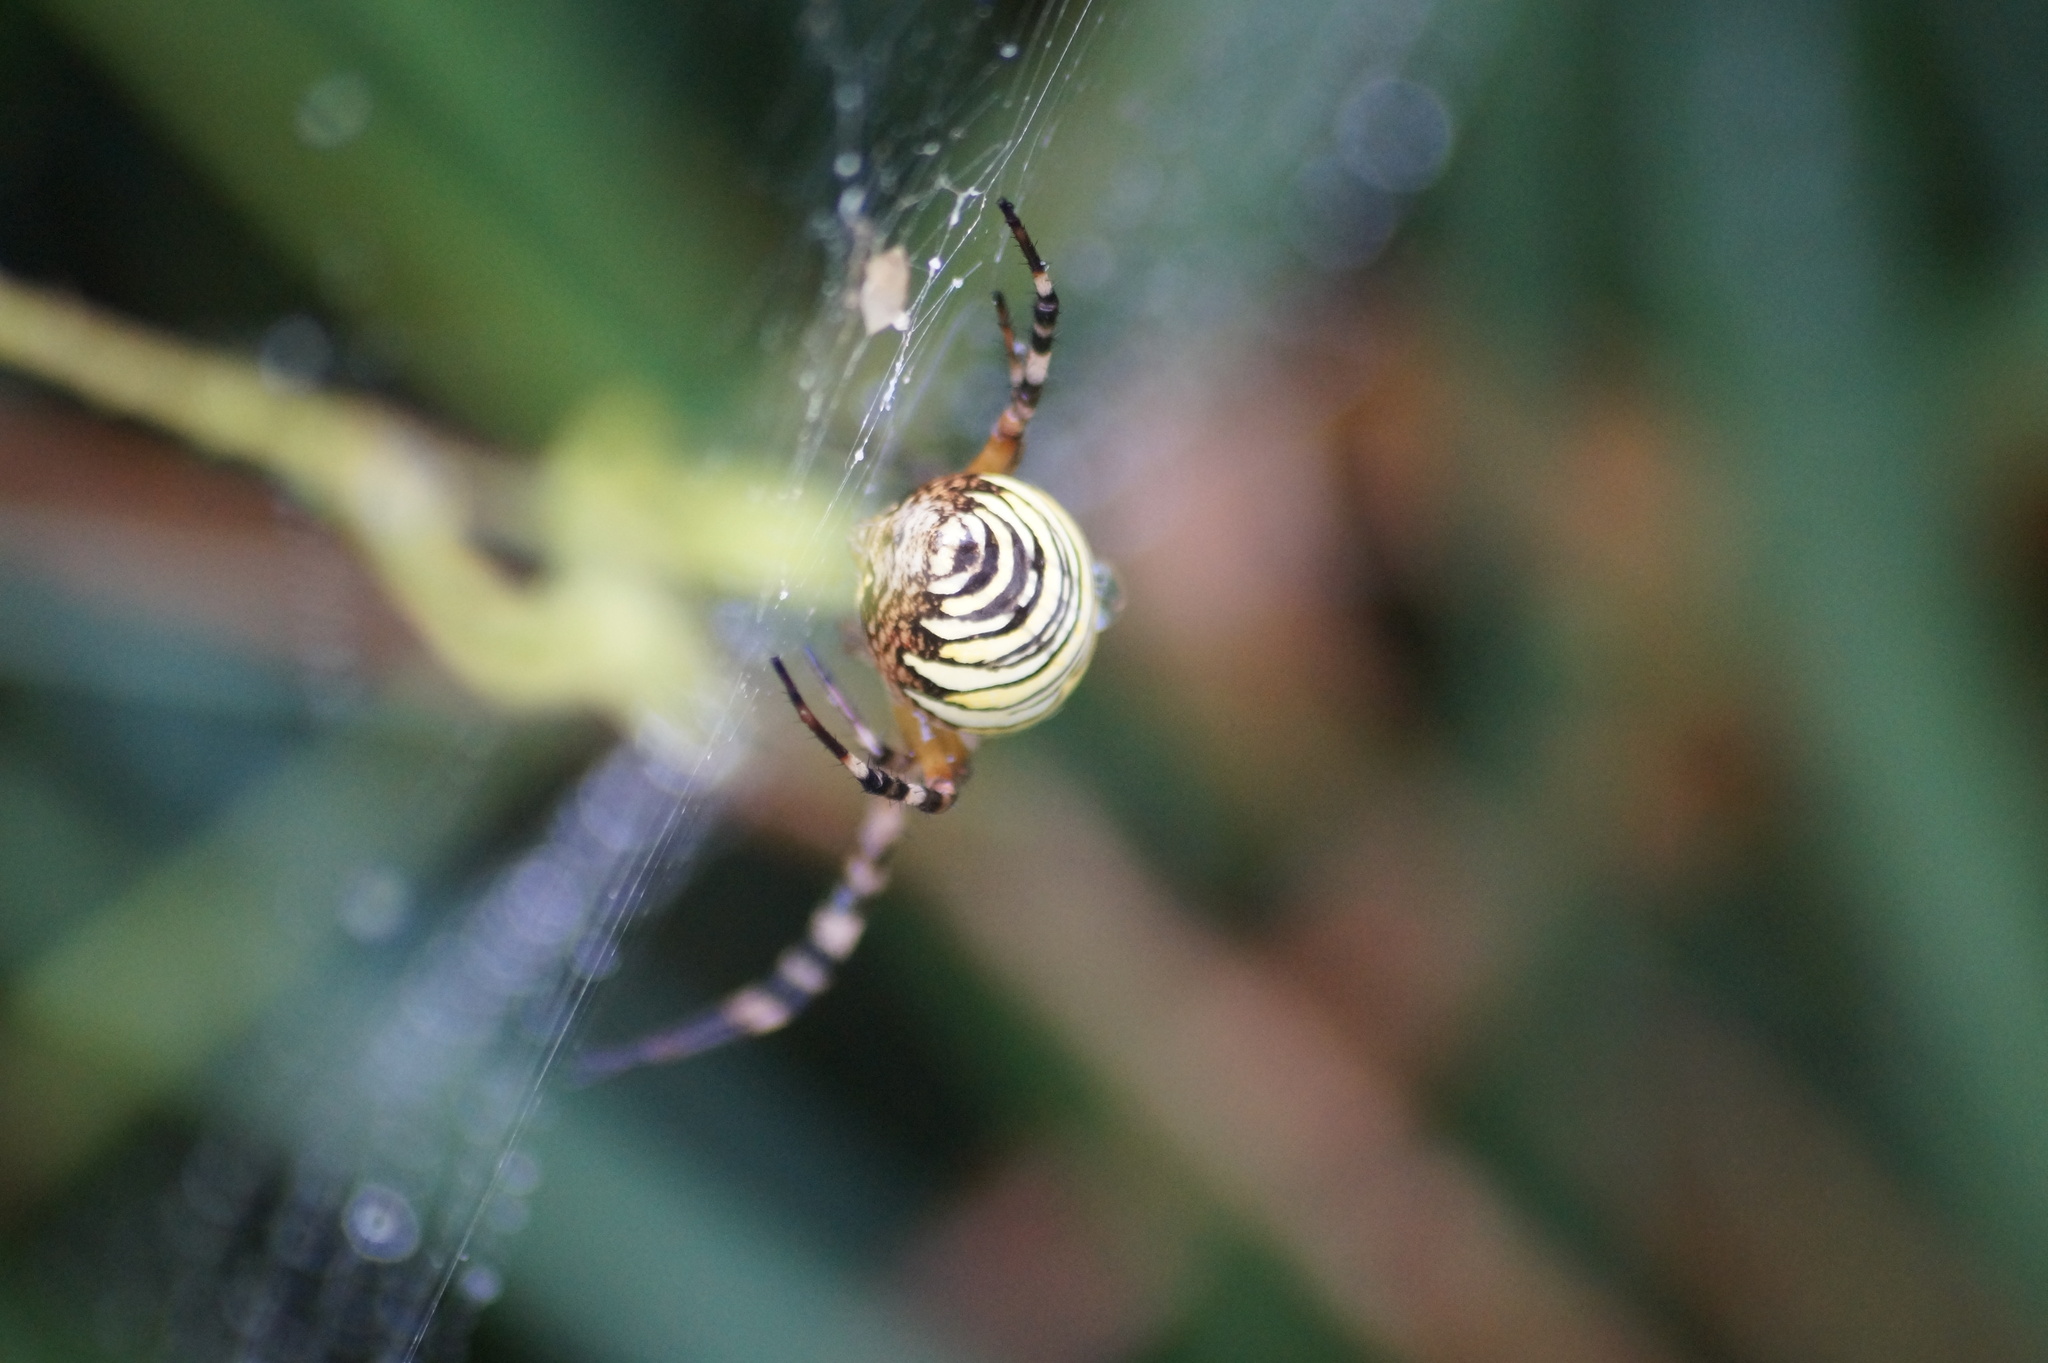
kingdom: Animalia
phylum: Arthropoda
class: Arachnida
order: Araneae
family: Araneidae
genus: Argiope
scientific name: Argiope bruennichi
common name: Wasp spider
